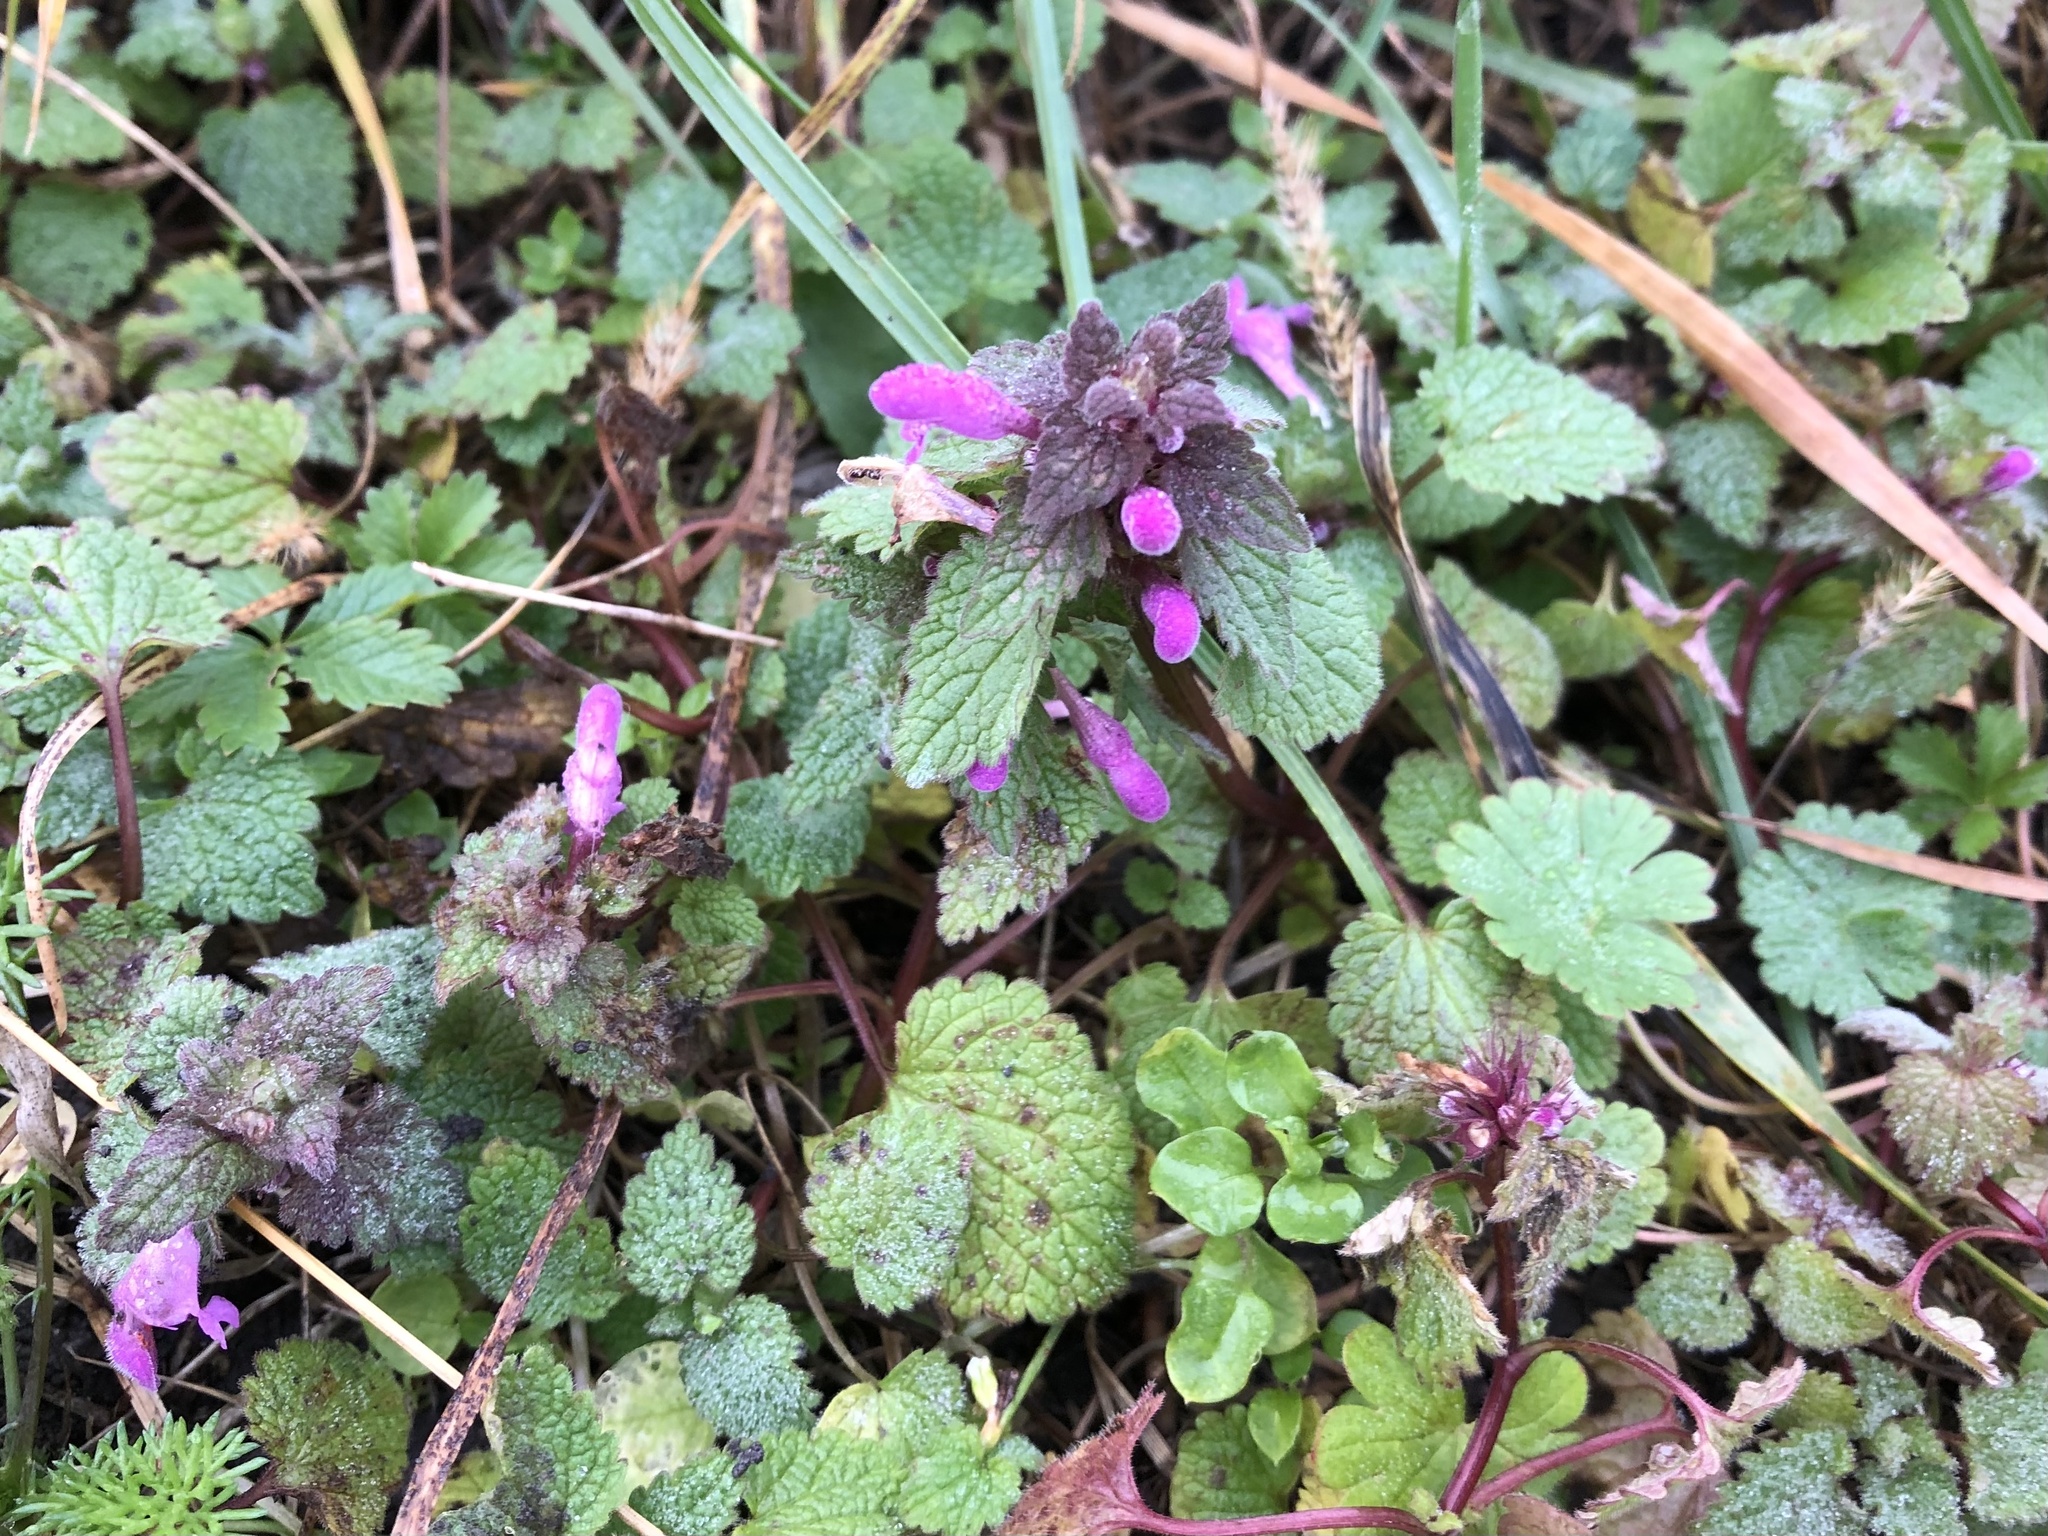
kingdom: Plantae
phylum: Tracheophyta
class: Magnoliopsida
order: Lamiales
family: Lamiaceae
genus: Lamium
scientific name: Lamium purpureum
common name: Red dead-nettle
